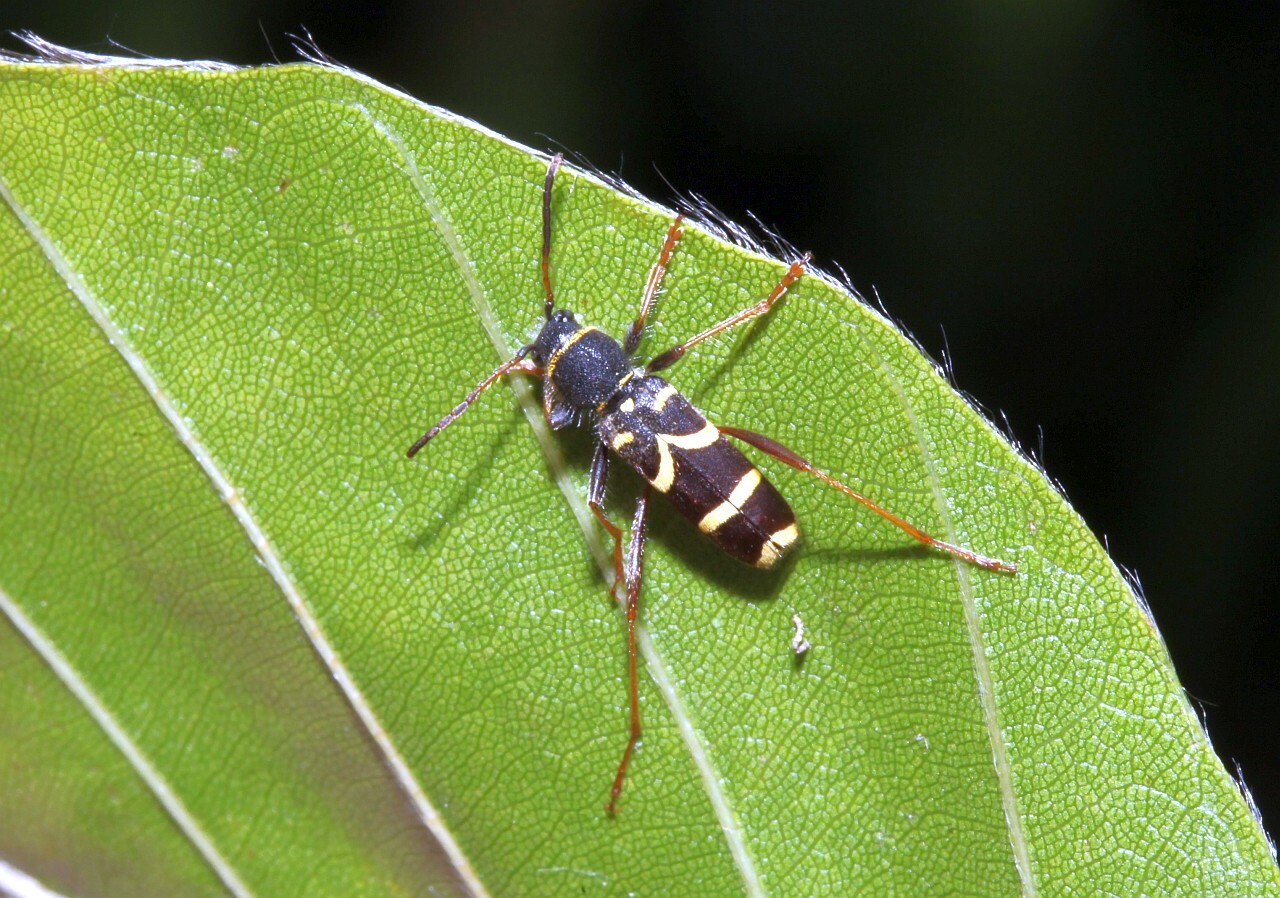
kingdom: Animalia
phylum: Arthropoda
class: Insecta
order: Coleoptera
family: Cerambycidae
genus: Clytus
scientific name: Clytus arietis
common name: Wasp beetle
